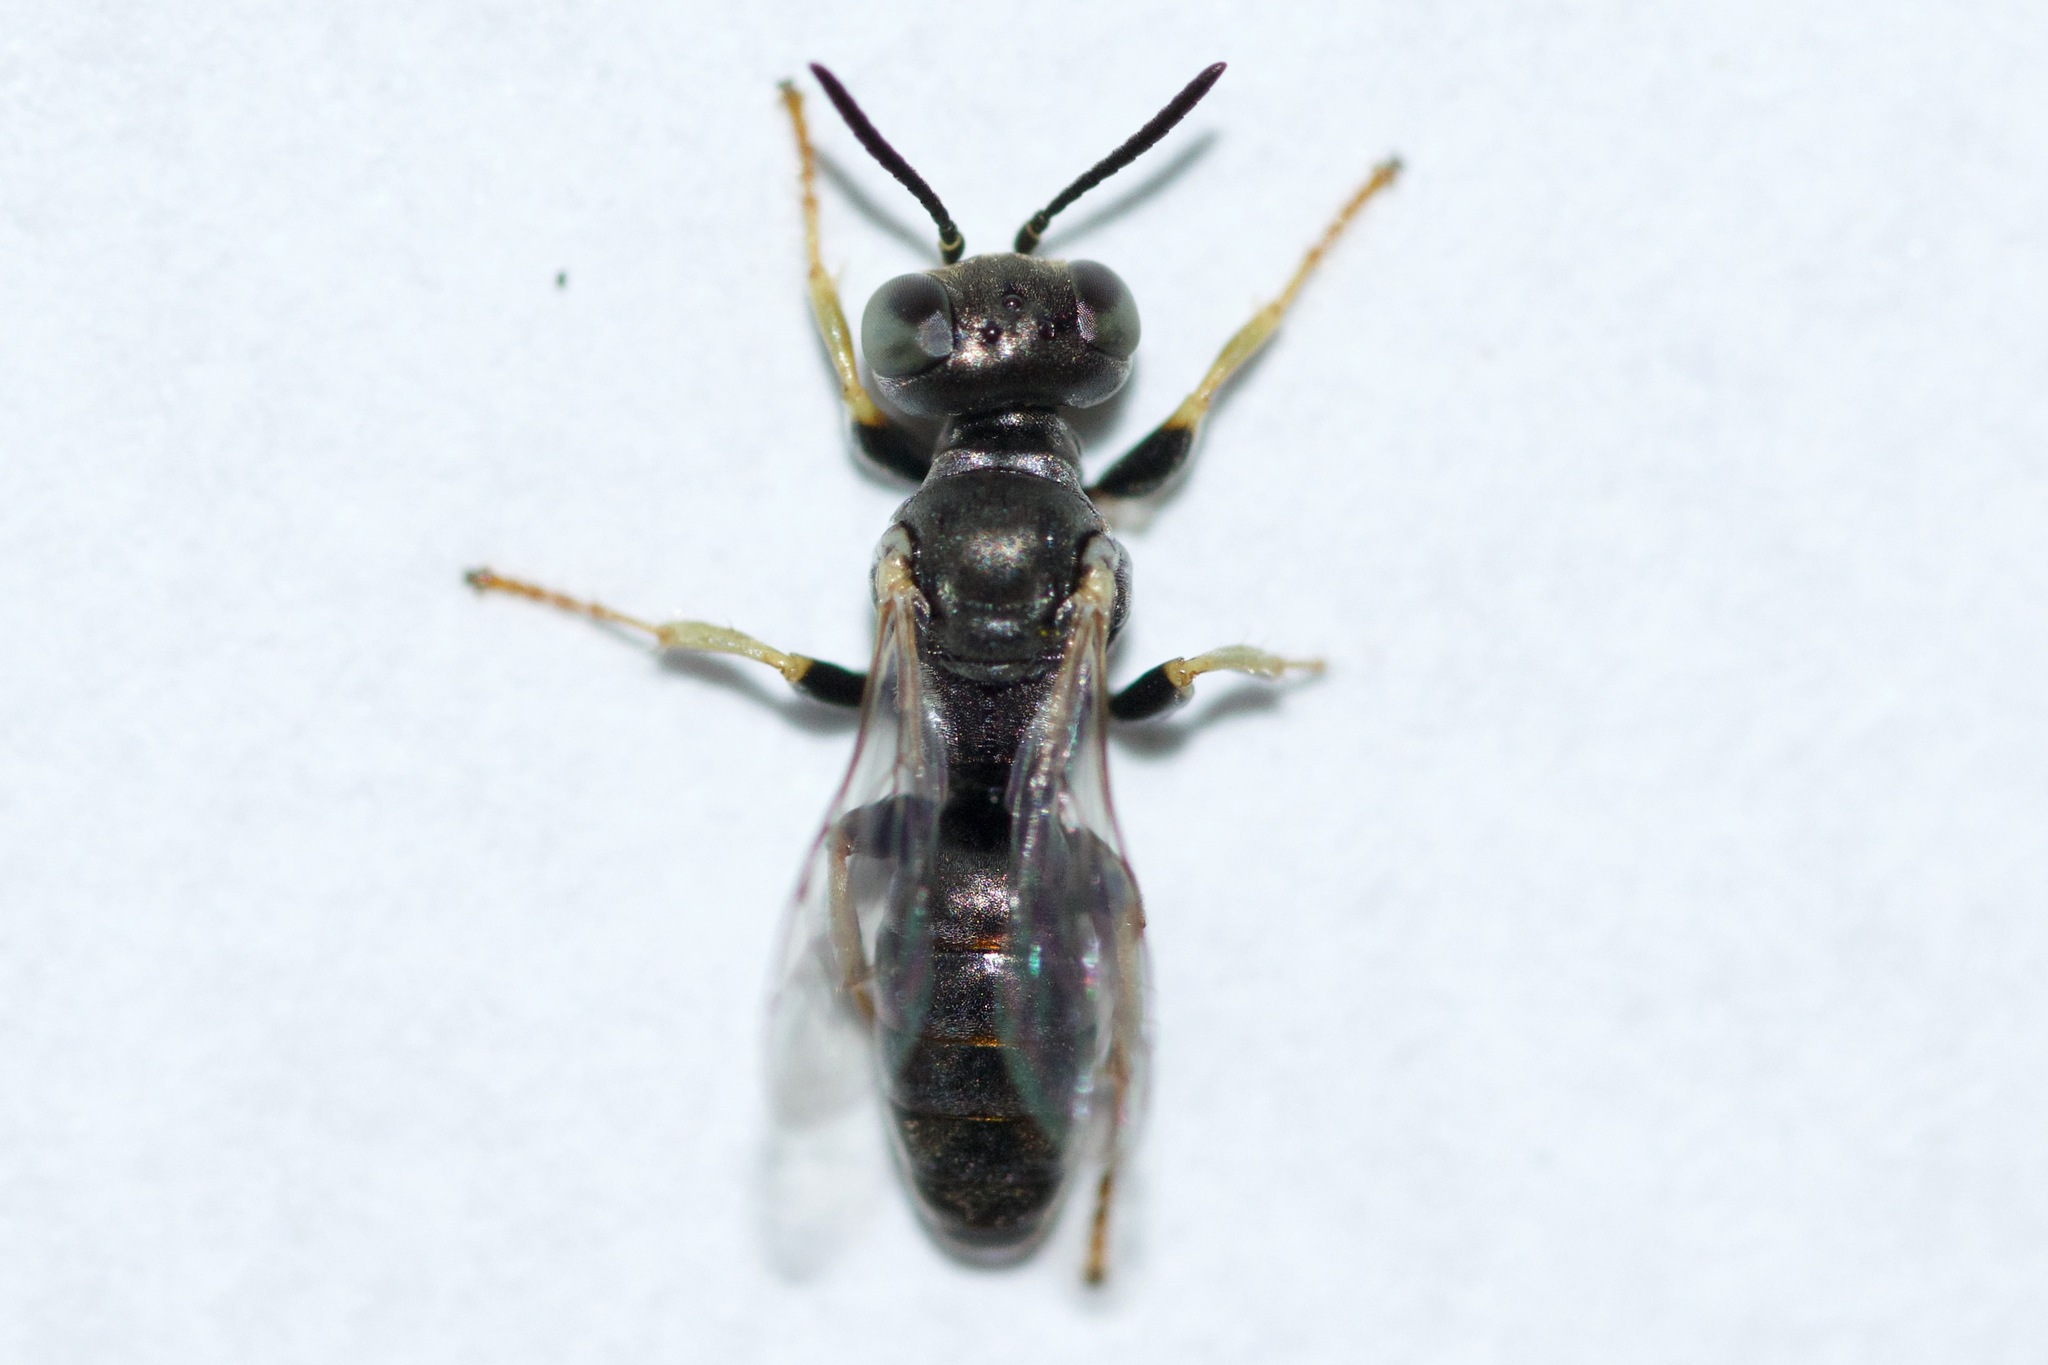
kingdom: Animalia
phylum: Arthropoda
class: Insecta
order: Hymenoptera
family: Crabronidae
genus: Plenoculus
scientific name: Plenoculus davisi
